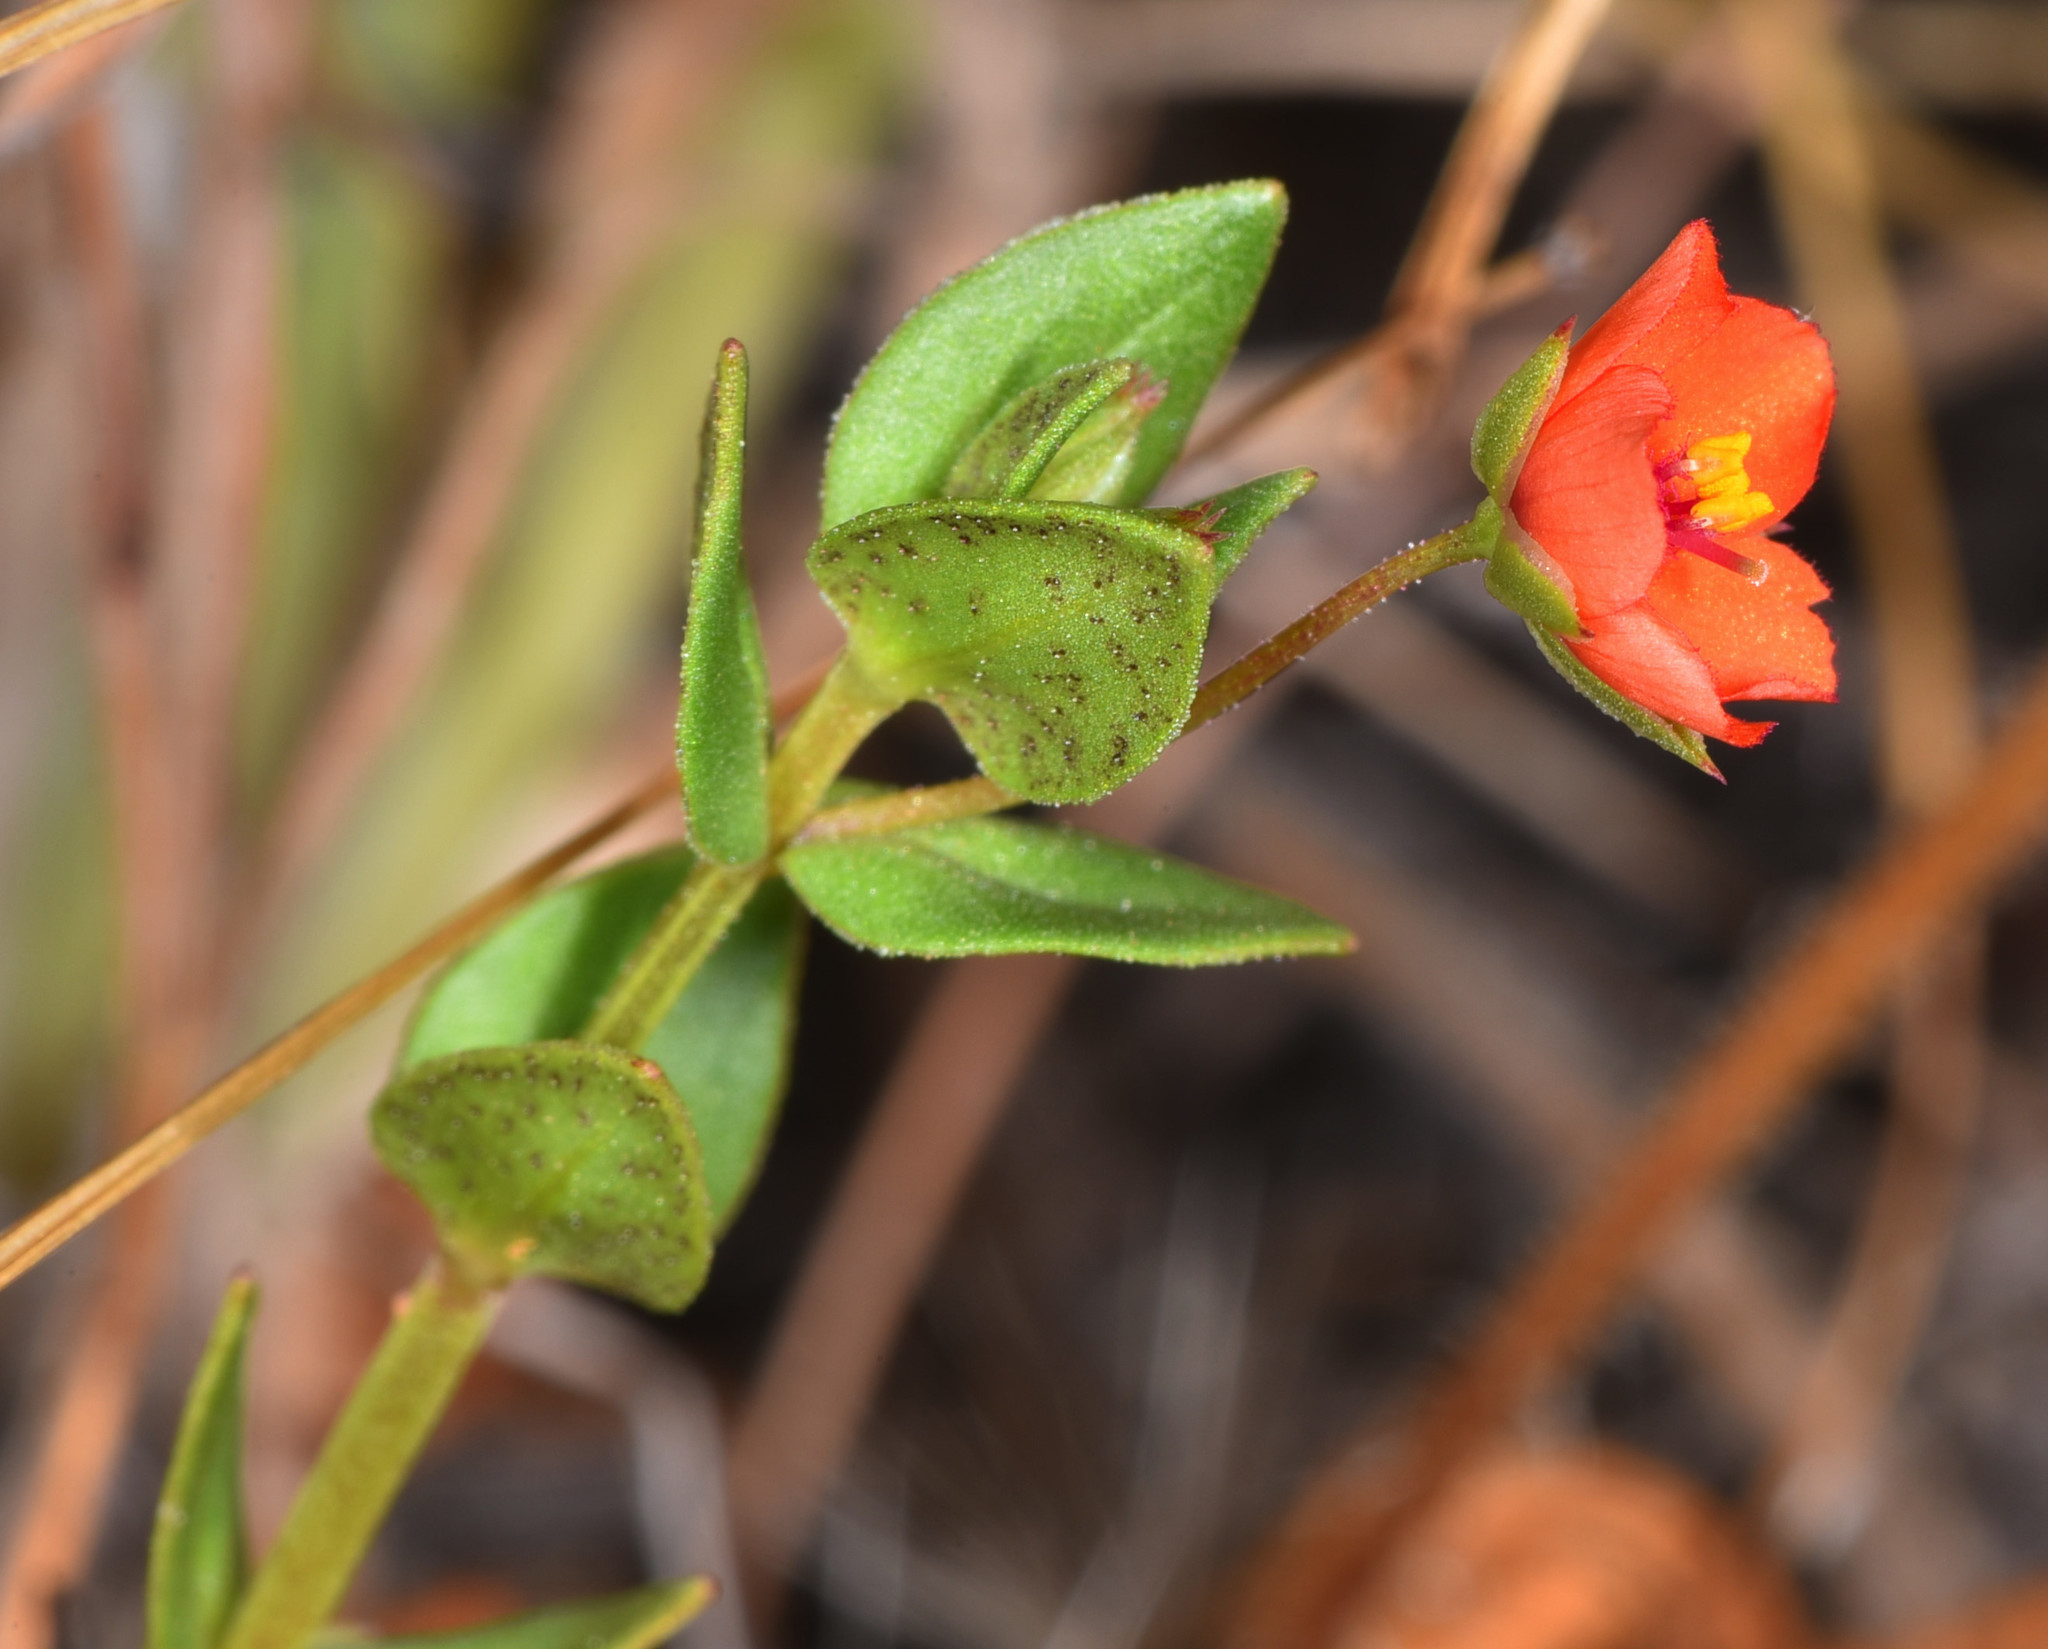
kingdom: Plantae
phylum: Tracheophyta
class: Magnoliopsida
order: Ericales
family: Primulaceae
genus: Lysimachia
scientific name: Lysimachia arvensis
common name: Scarlet pimpernel
